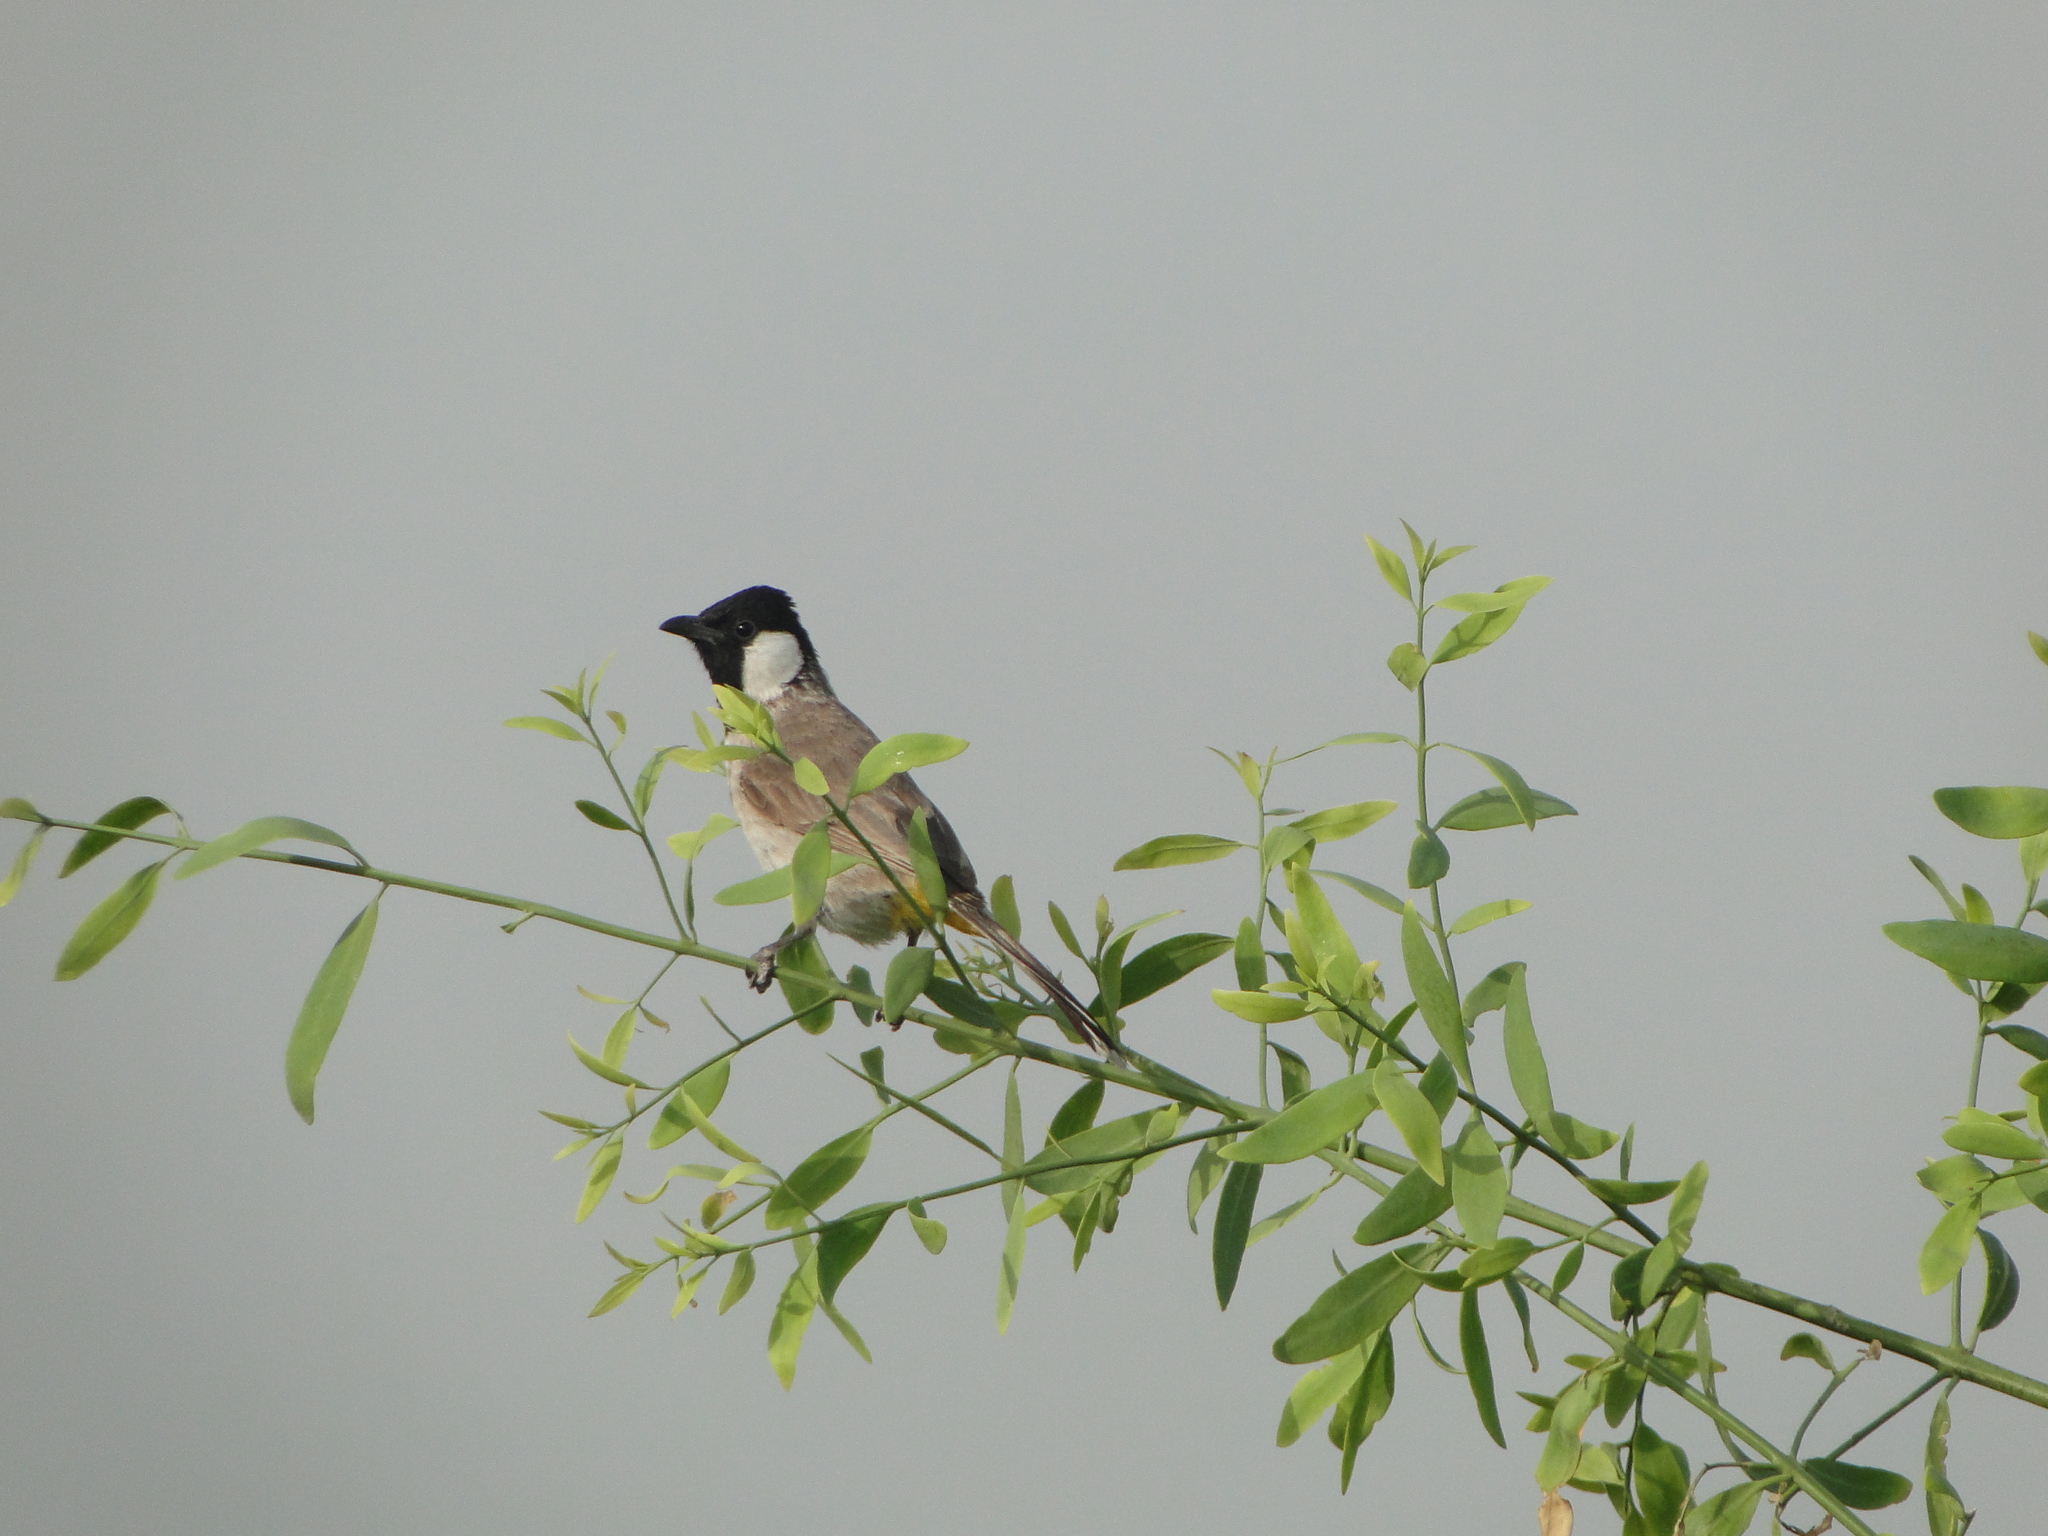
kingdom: Animalia
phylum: Chordata
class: Aves
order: Passeriformes
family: Pycnonotidae
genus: Pycnonotus
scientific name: Pycnonotus leucotis
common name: White-eared bulbul
